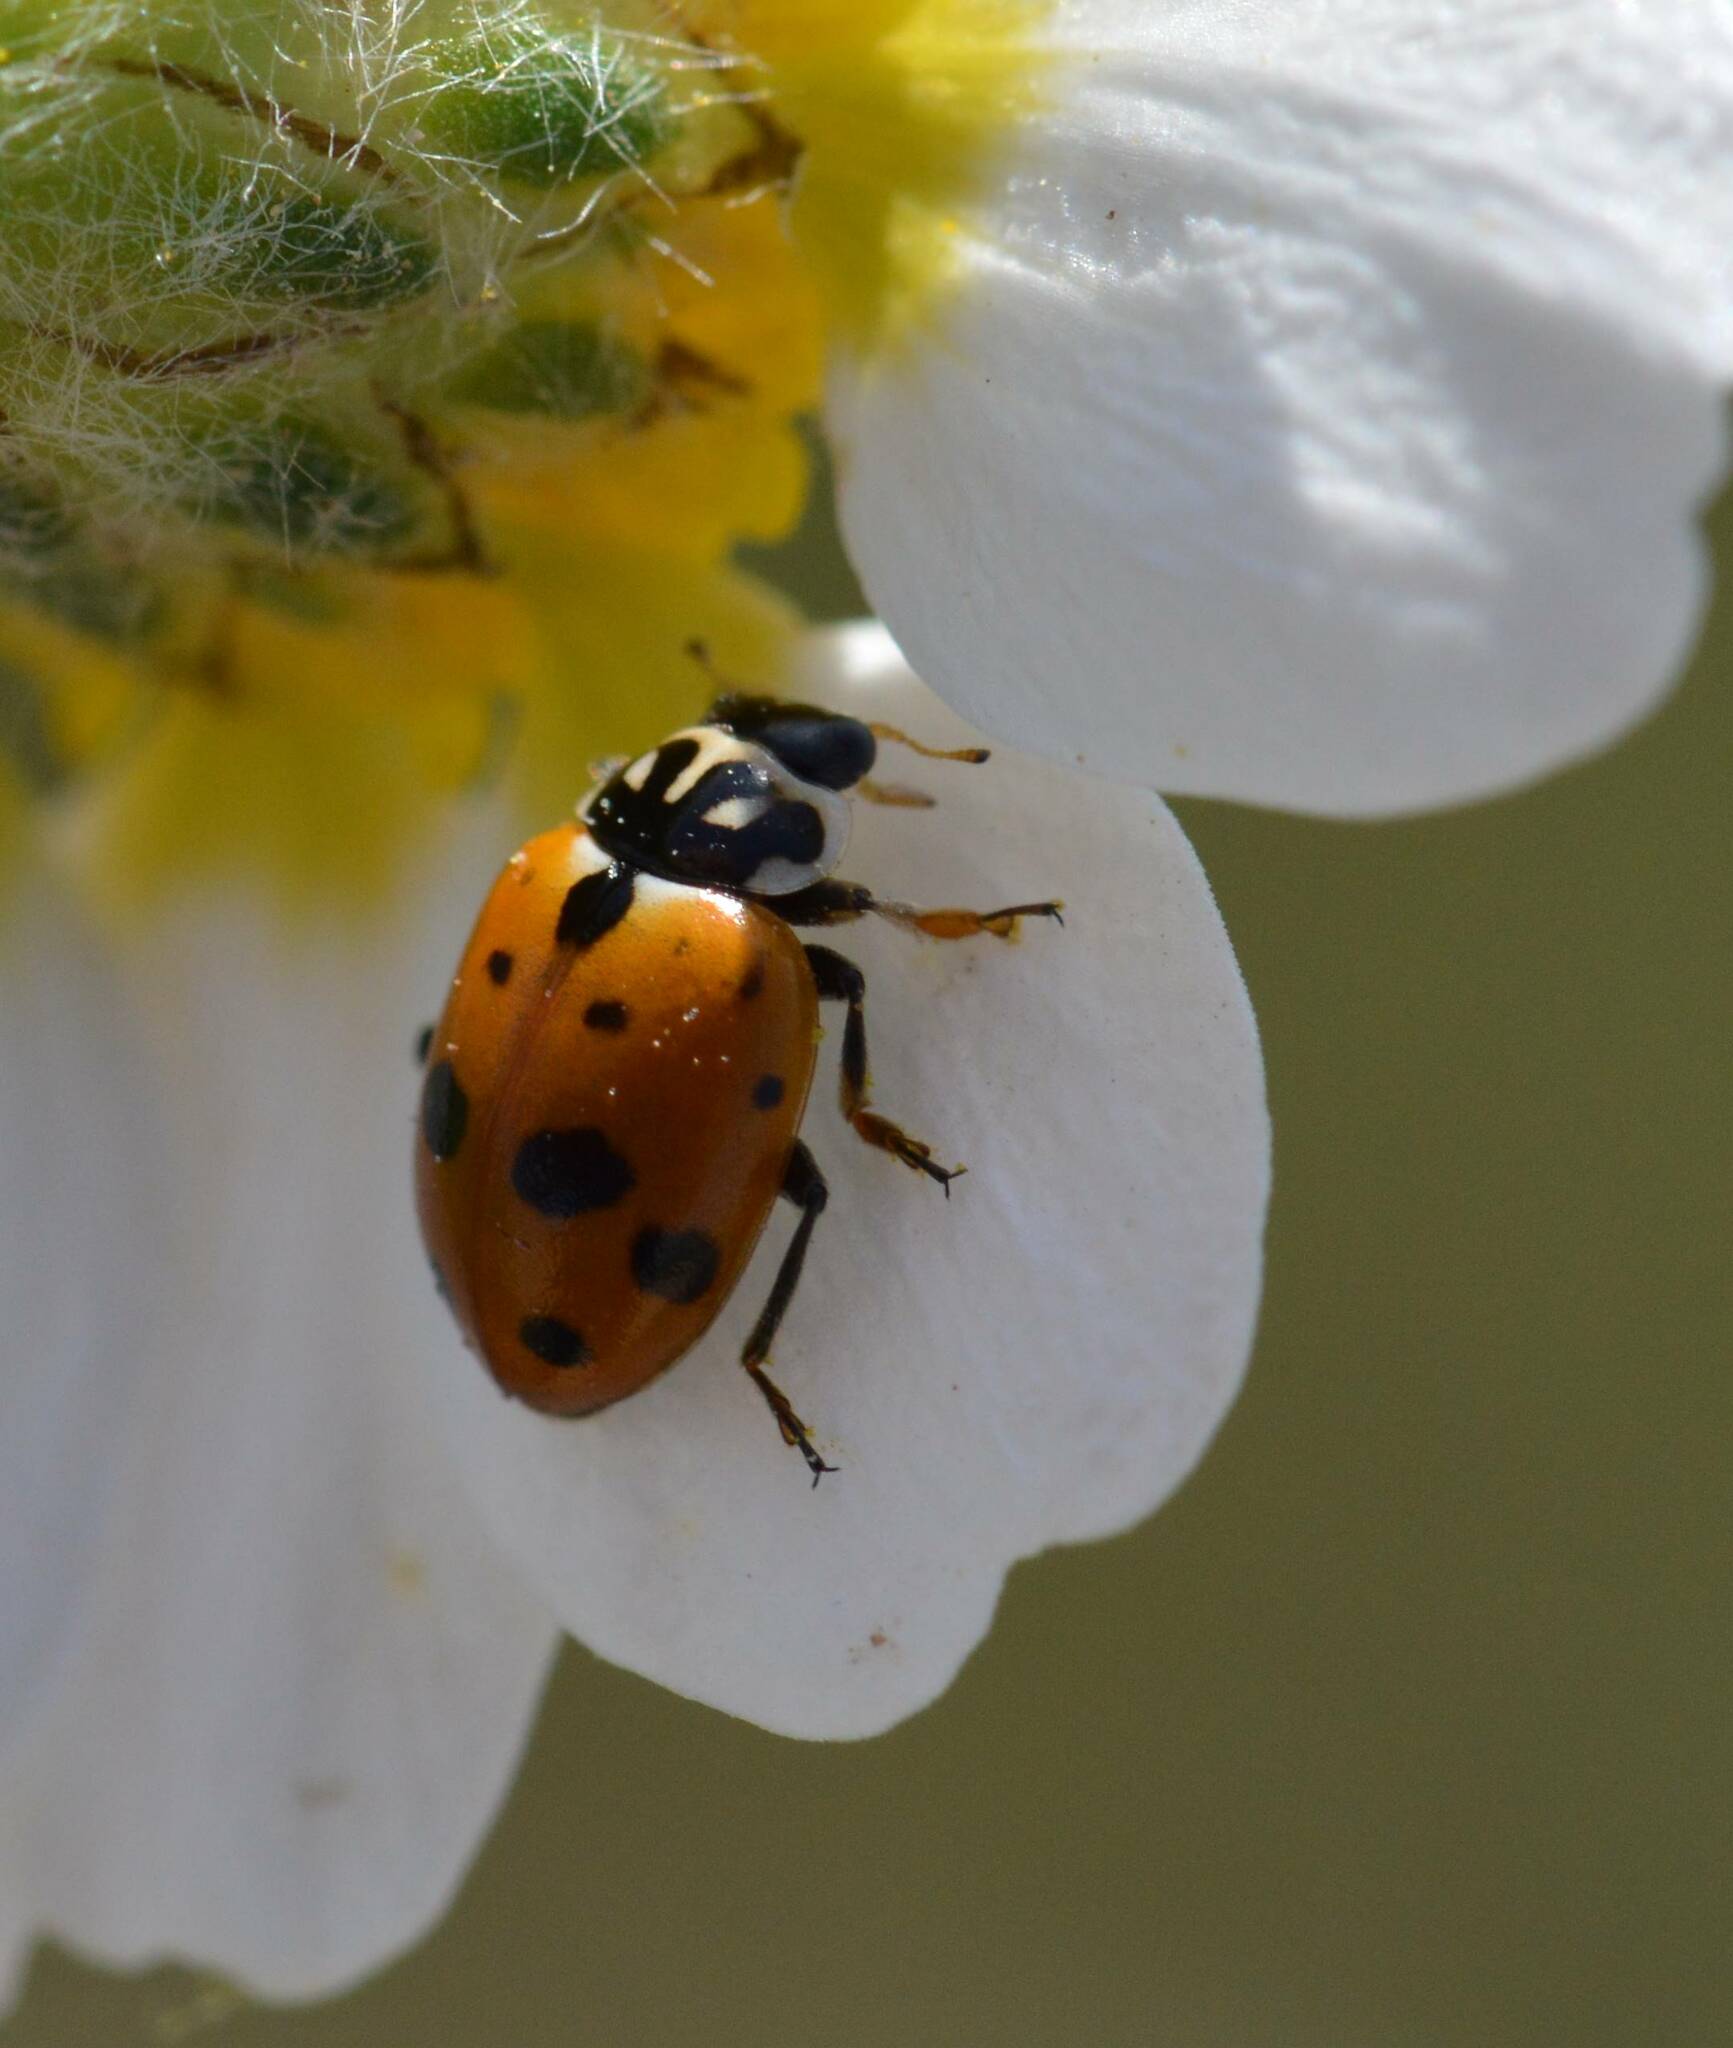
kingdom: Animalia
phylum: Arthropoda
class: Insecta
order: Coleoptera
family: Coccinellidae
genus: Hippodamia
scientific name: Hippodamia variegata
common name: Ladybird beetle
